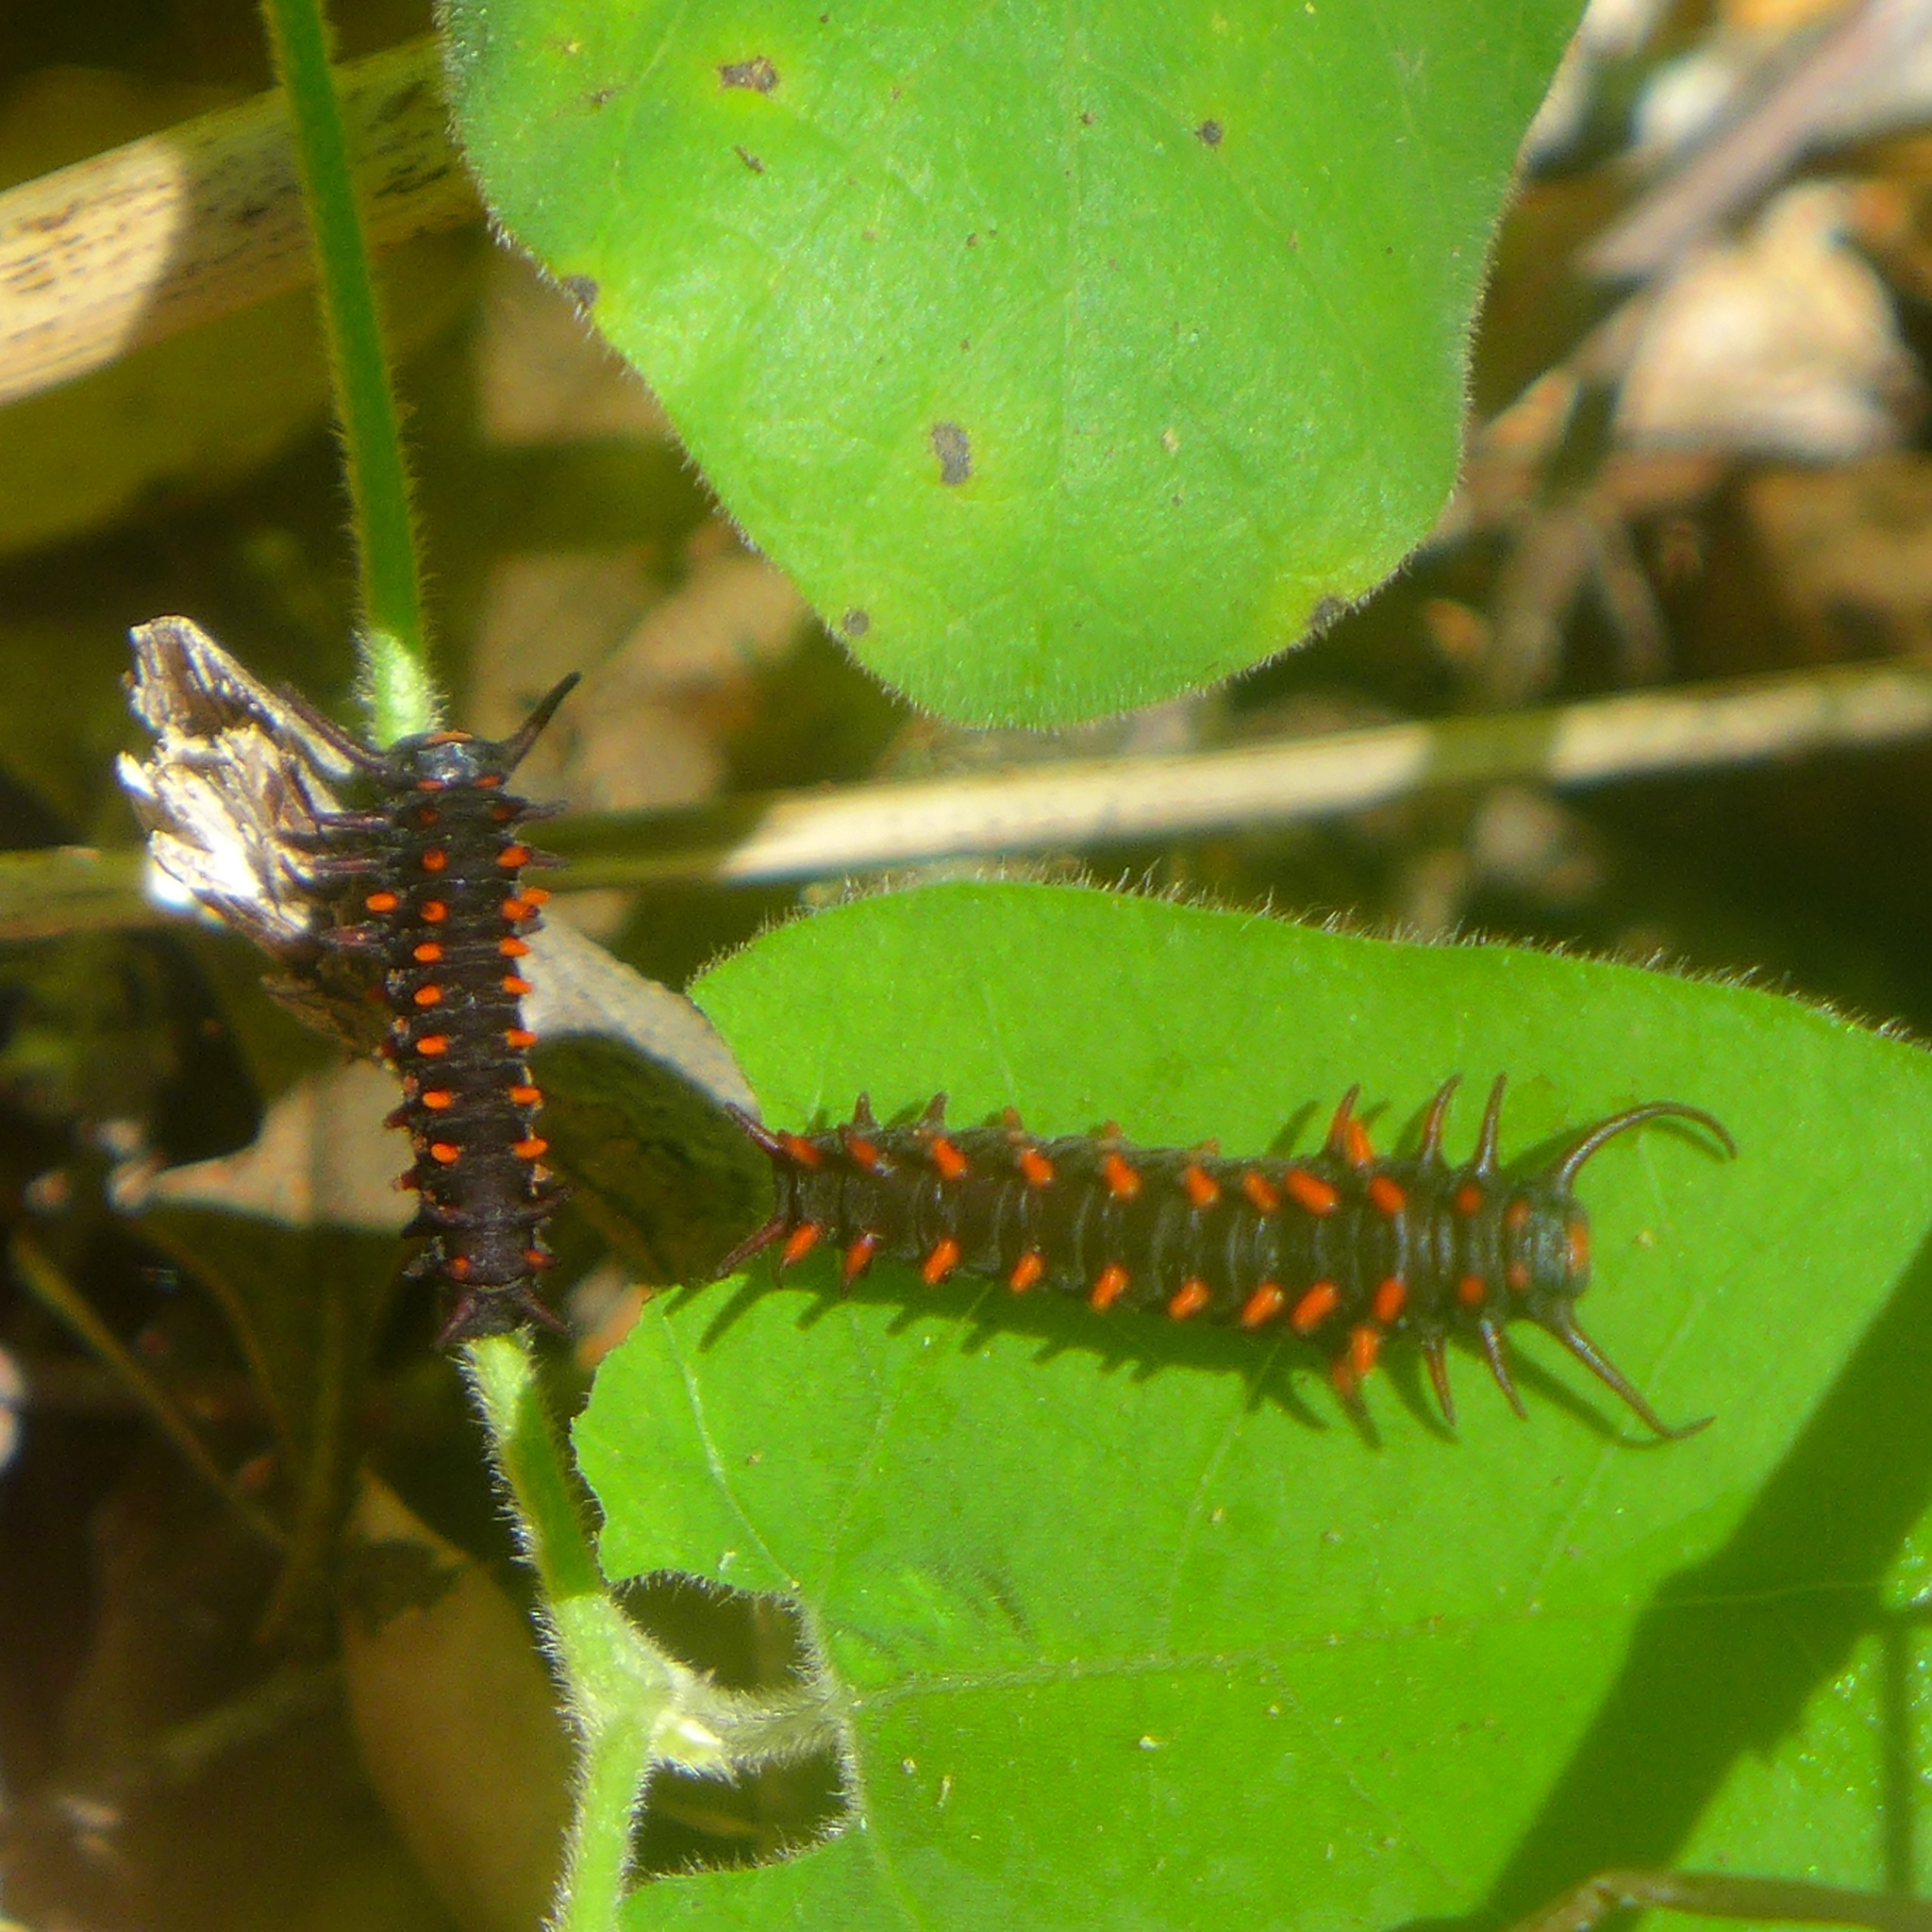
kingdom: Animalia
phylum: Arthropoda
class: Insecta
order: Lepidoptera
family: Papilionidae
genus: Battus
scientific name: Battus philenor
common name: Pipevine swallowtail
